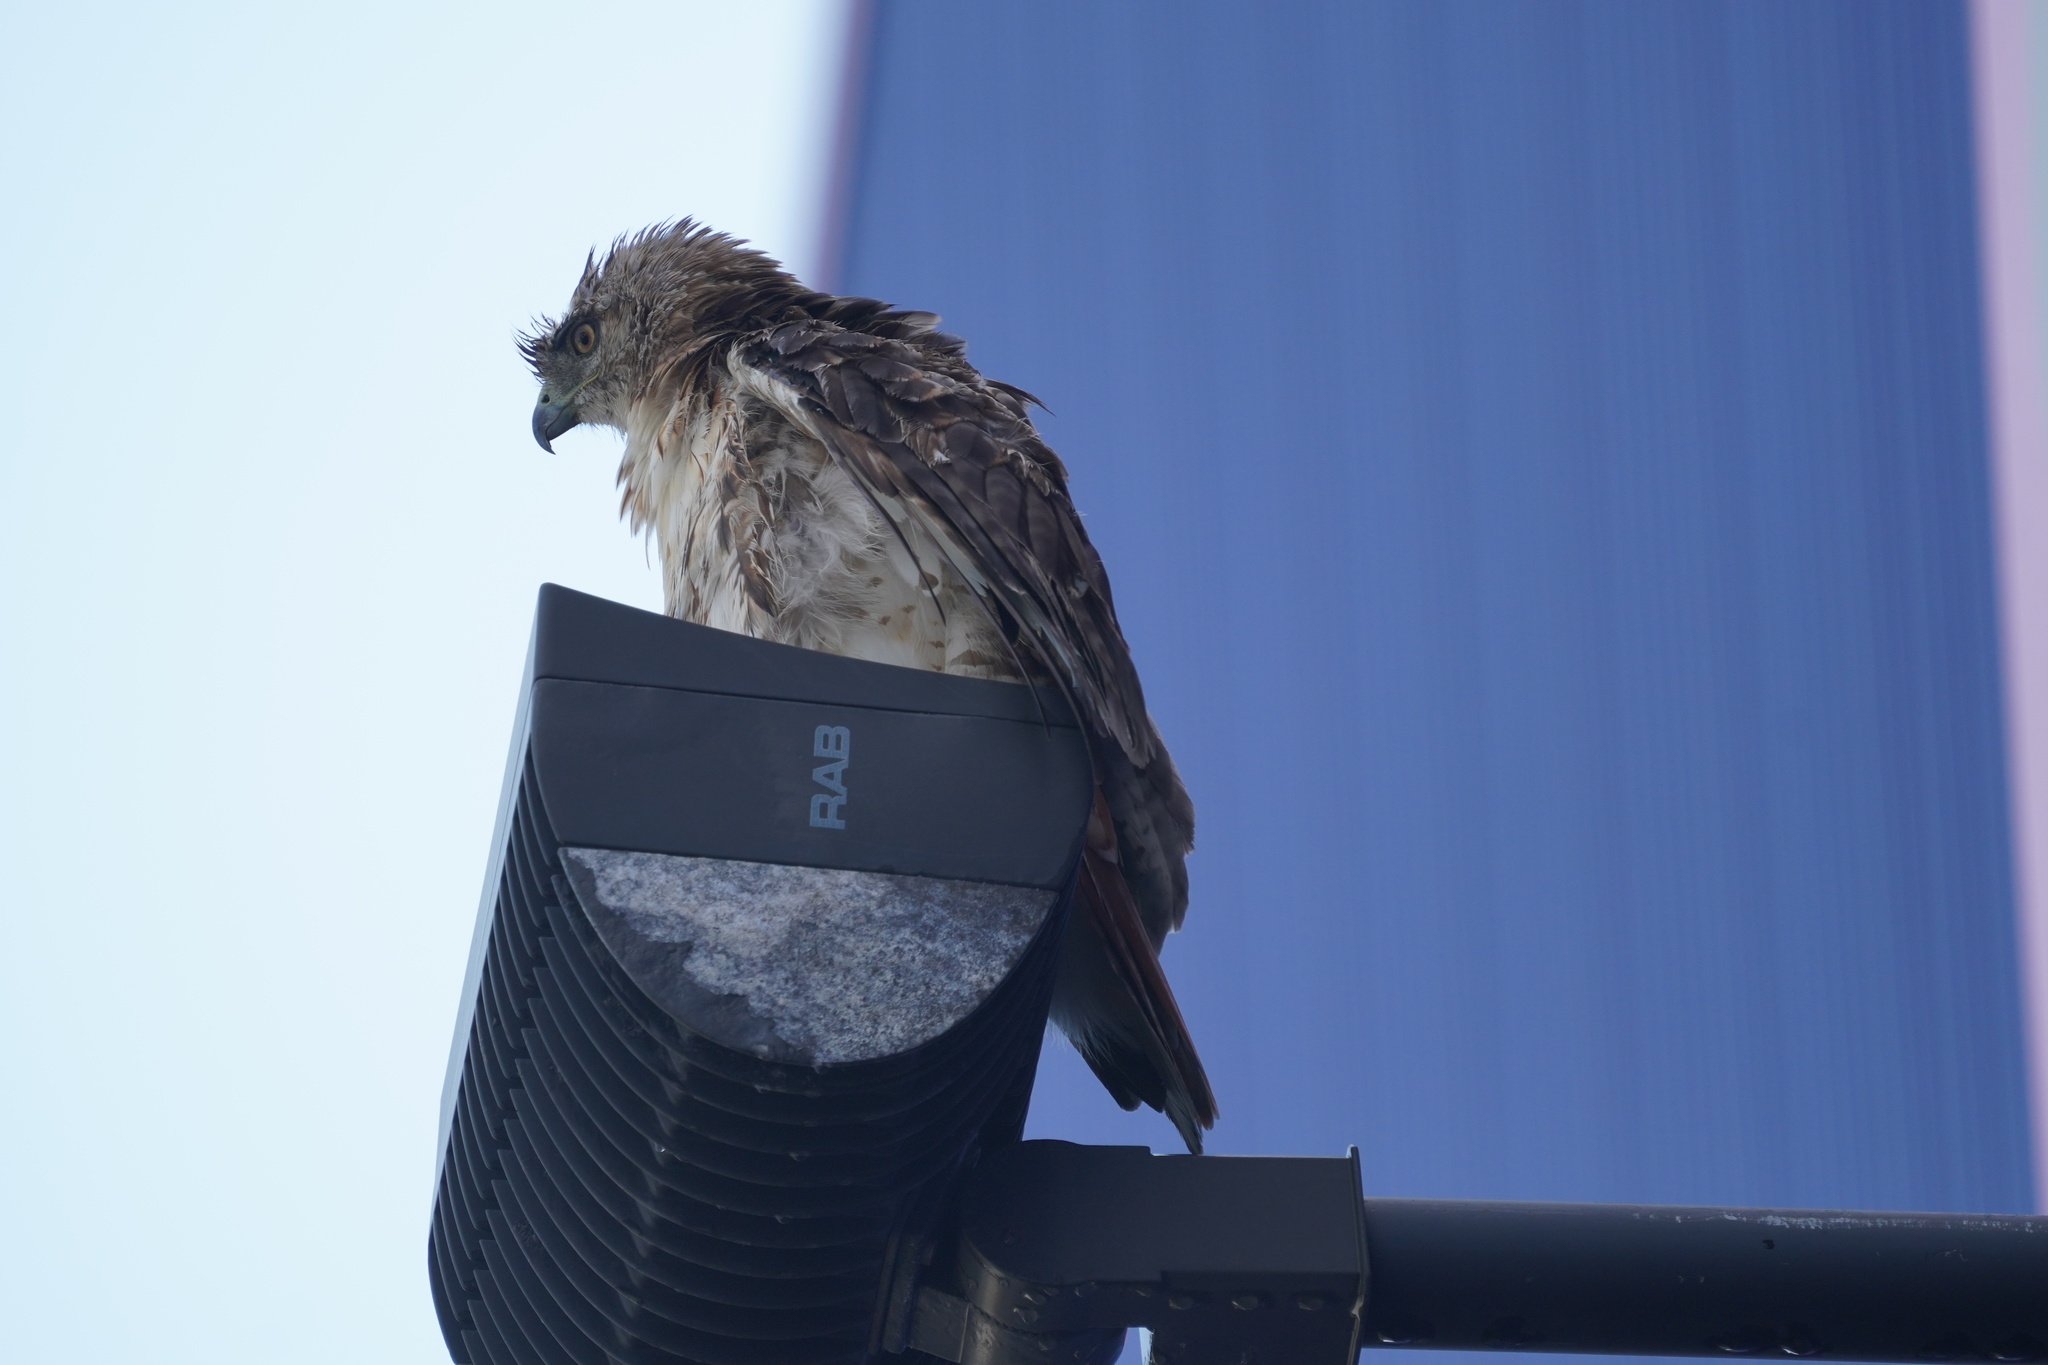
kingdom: Animalia
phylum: Chordata
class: Aves
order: Accipitriformes
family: Accipitridae
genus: Buteo
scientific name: Buteo jamaicensis
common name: Red-tailed hawk
